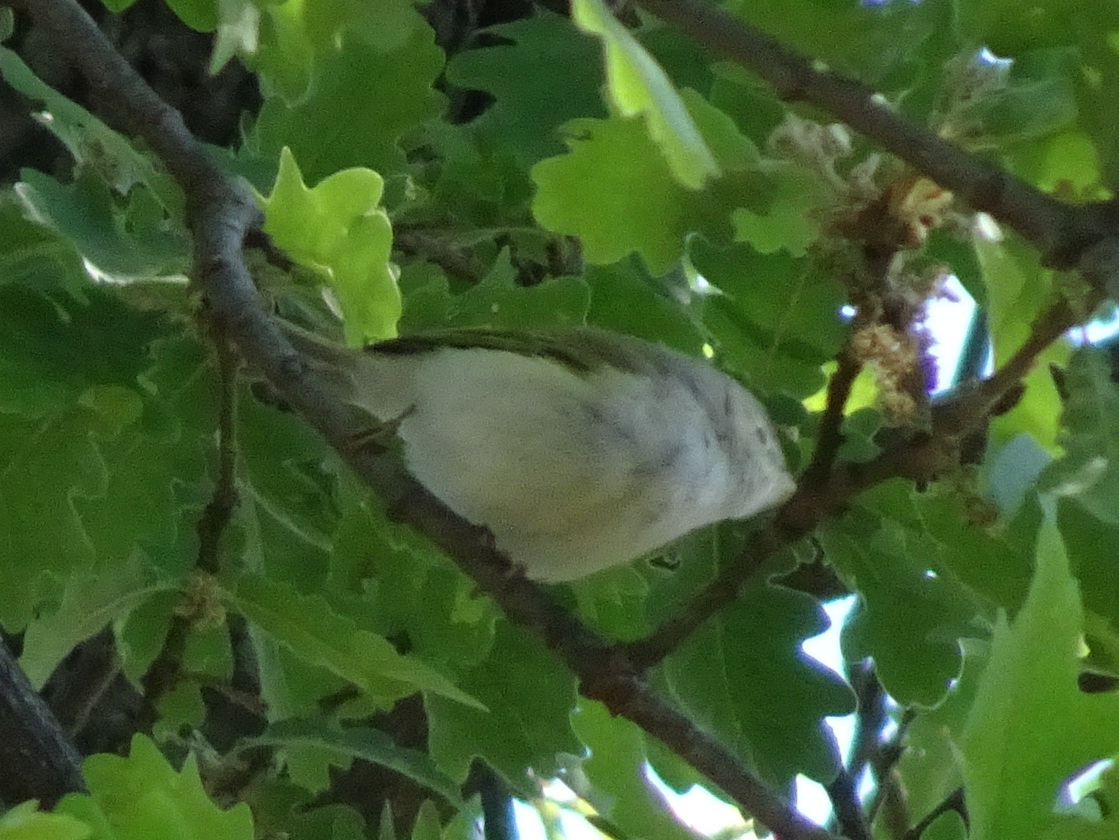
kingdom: Animalia
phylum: Chordata
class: Aves
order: Passeriformes
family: Phylloscopidae
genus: Phylloscopus
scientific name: Phylloscopus bonelli
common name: Western bonelli's warbler
